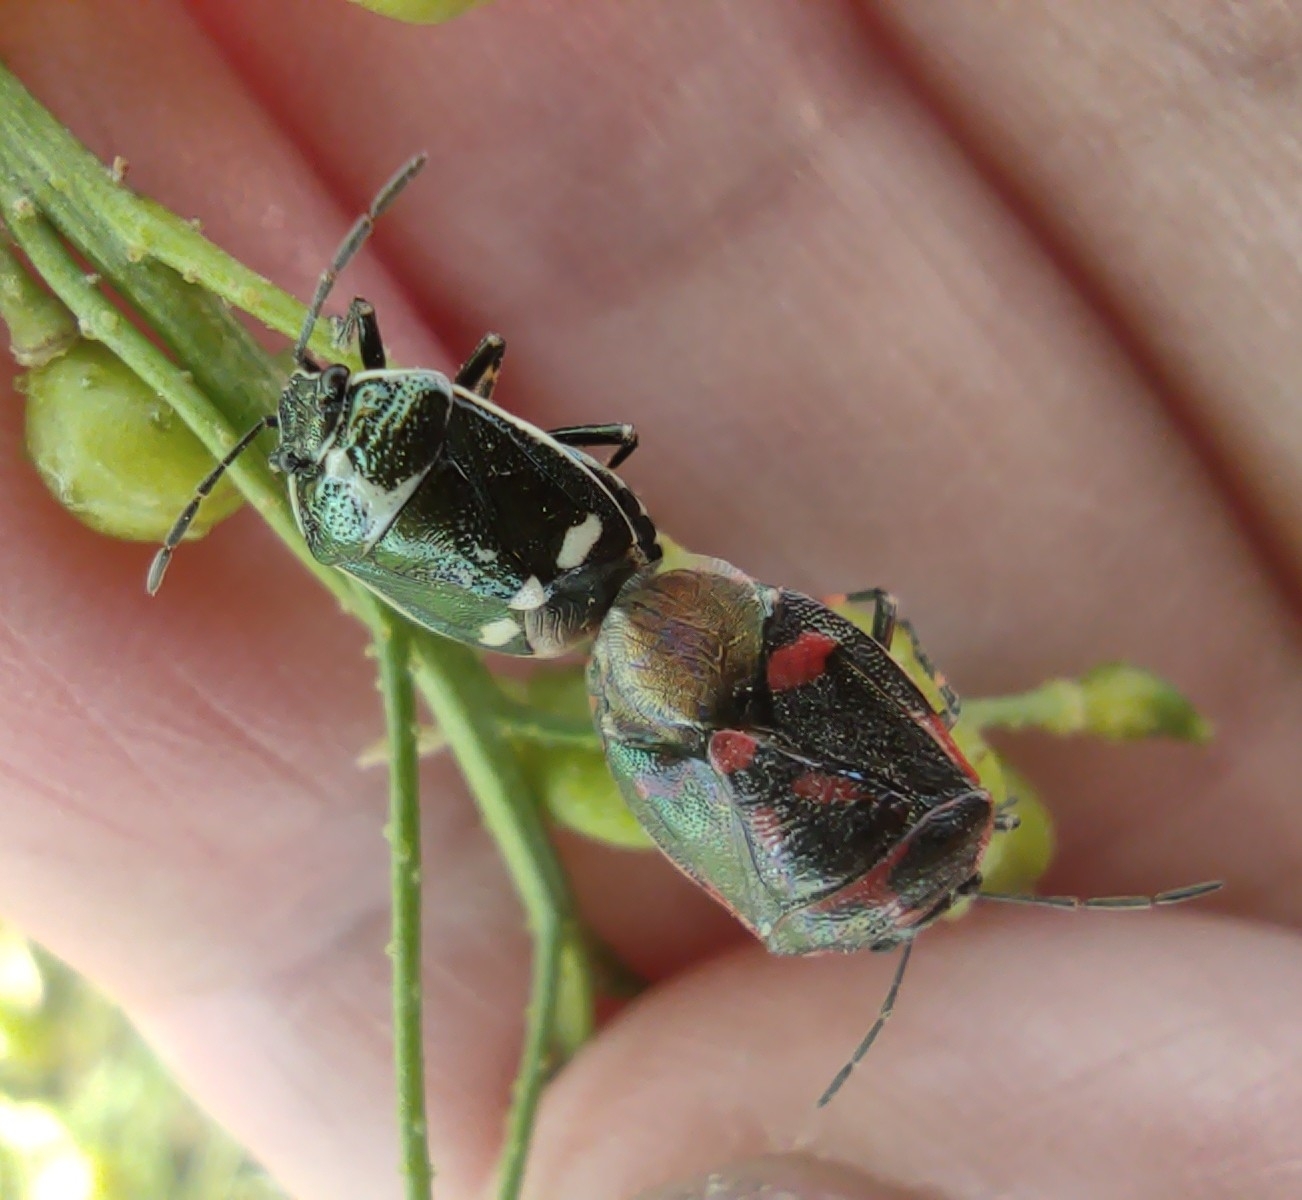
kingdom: Animalia
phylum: Arthropoda
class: Insecta
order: Hemiptera
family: Pentatomidae
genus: Eurydema
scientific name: Eurydema oleracea
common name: Cabbage bug
